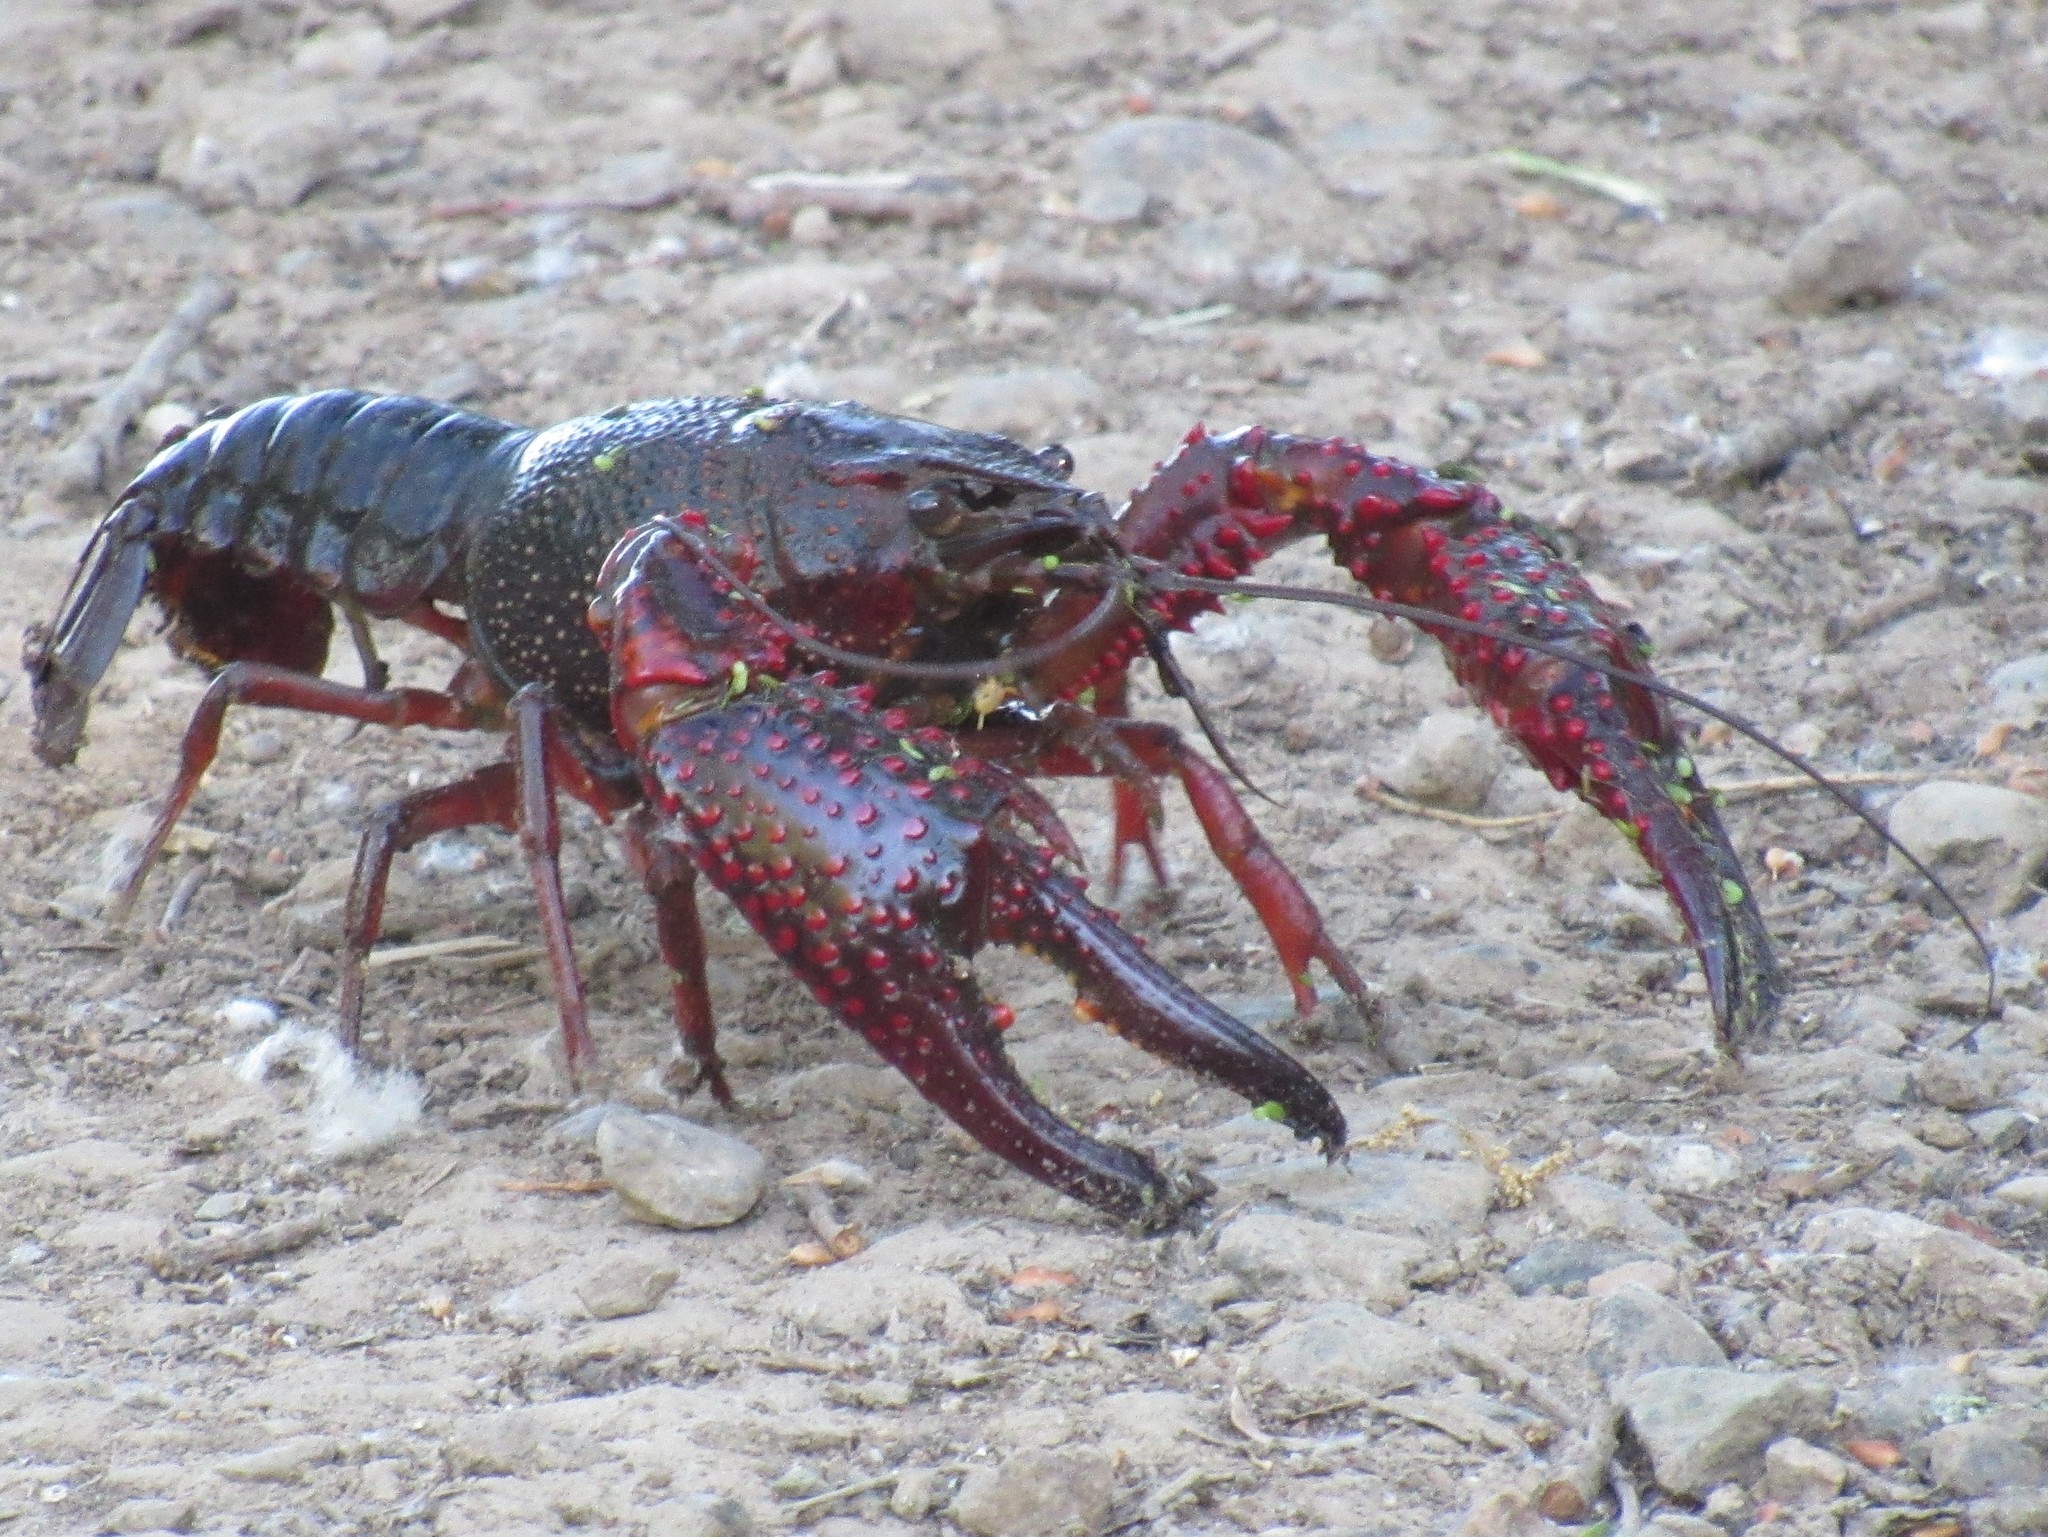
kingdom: Animalia
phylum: Arthropoda
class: Malacostraca
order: Decapoda
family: Cambaridae
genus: Procambarus
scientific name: Procambarus clarkii
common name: Red swamp crayfish
